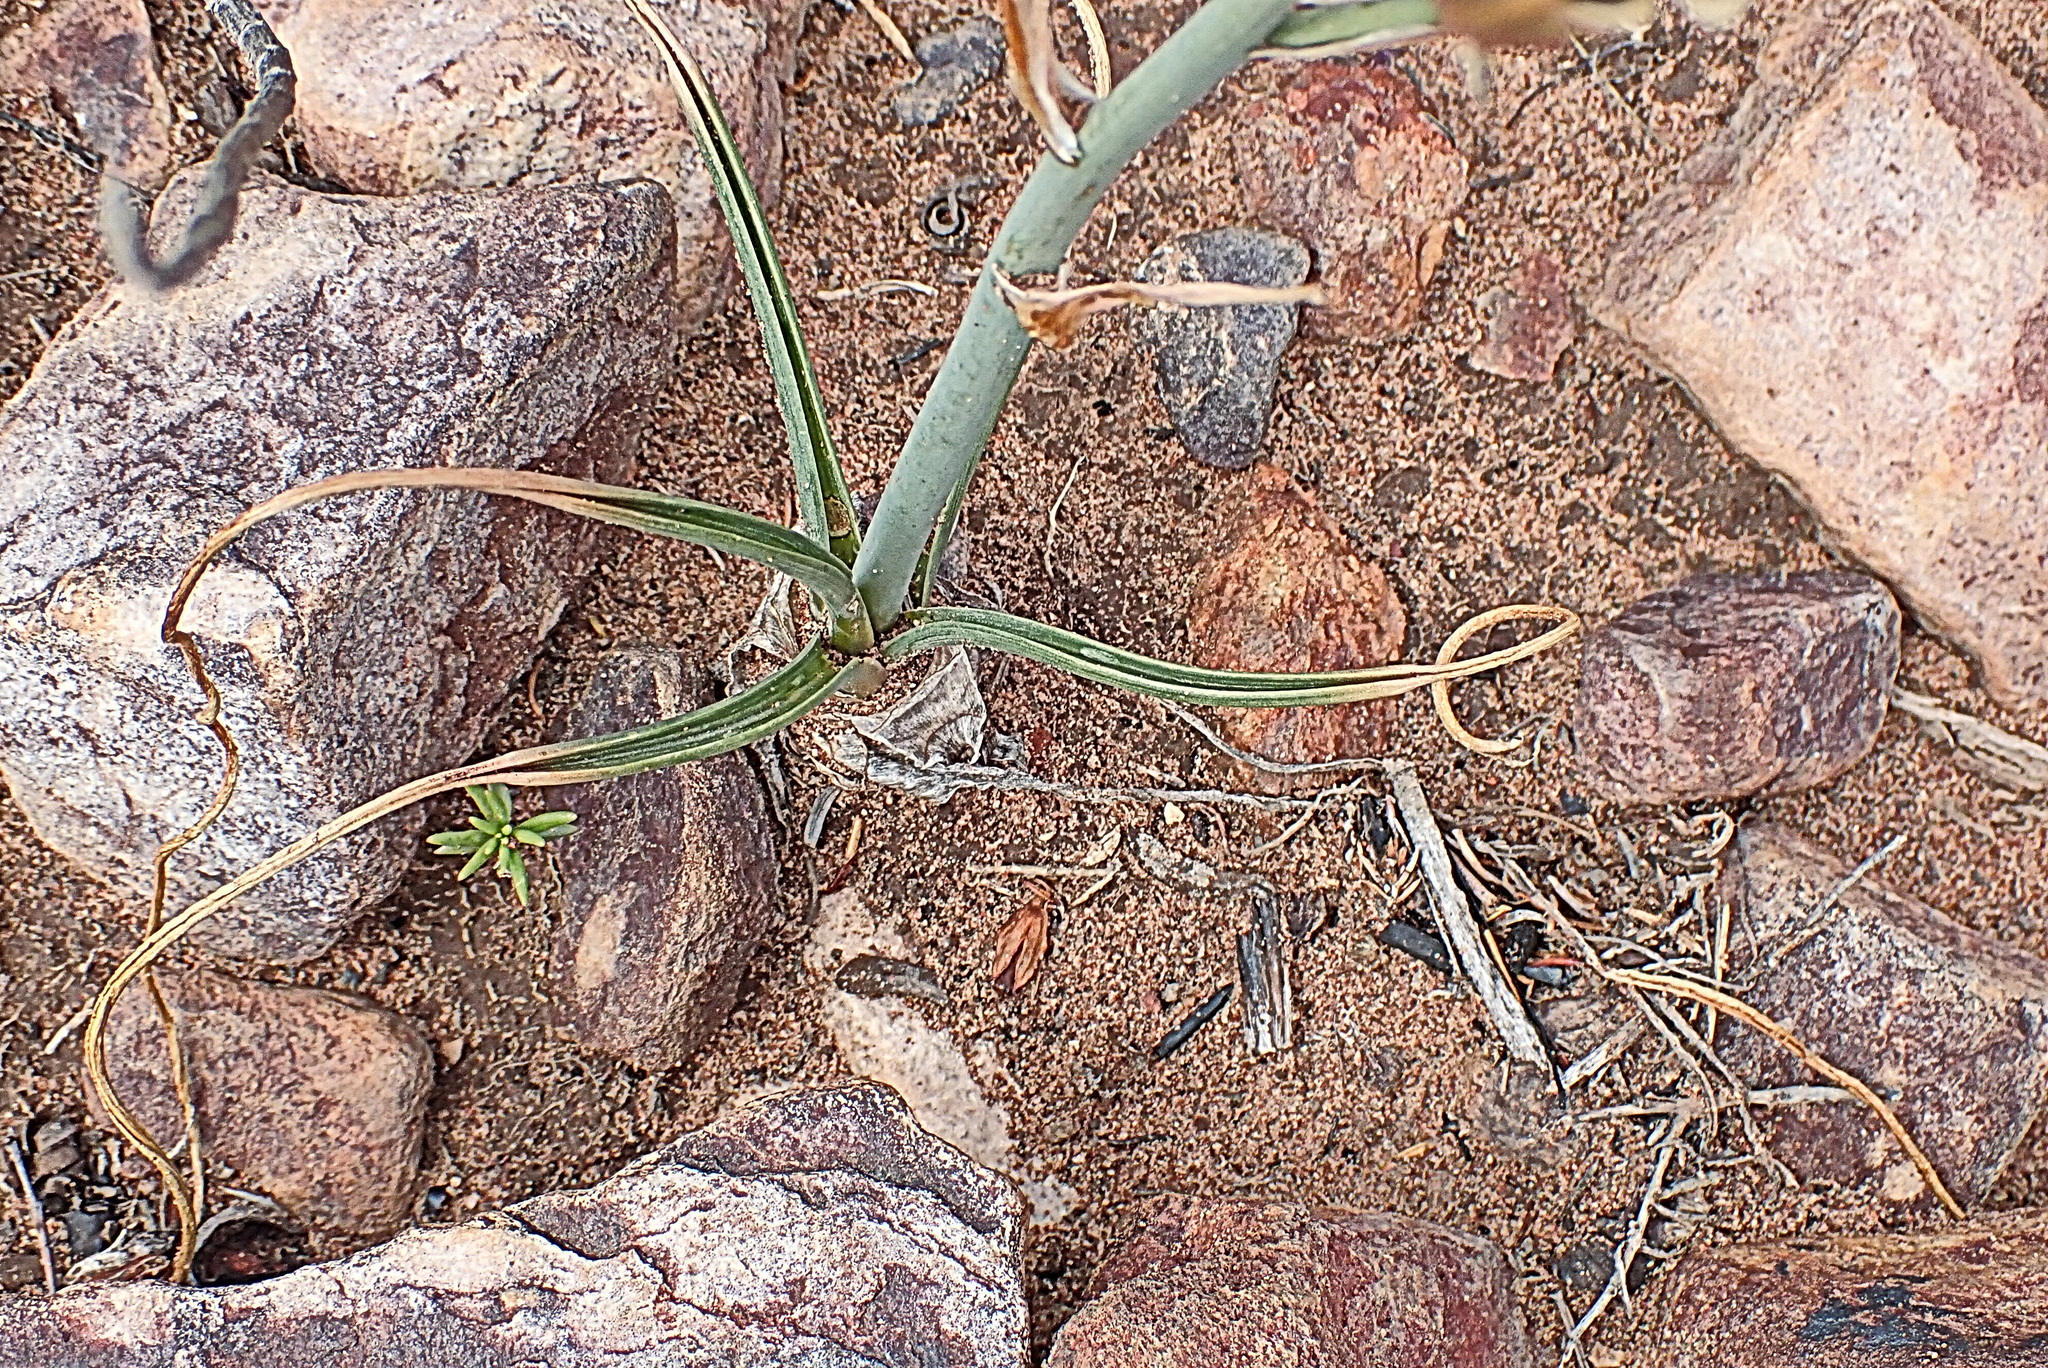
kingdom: Plantae
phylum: Tracheophyta
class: Liliopsida
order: Asparagales
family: Asparagaceae
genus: Albuca
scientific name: Albuca setosa
